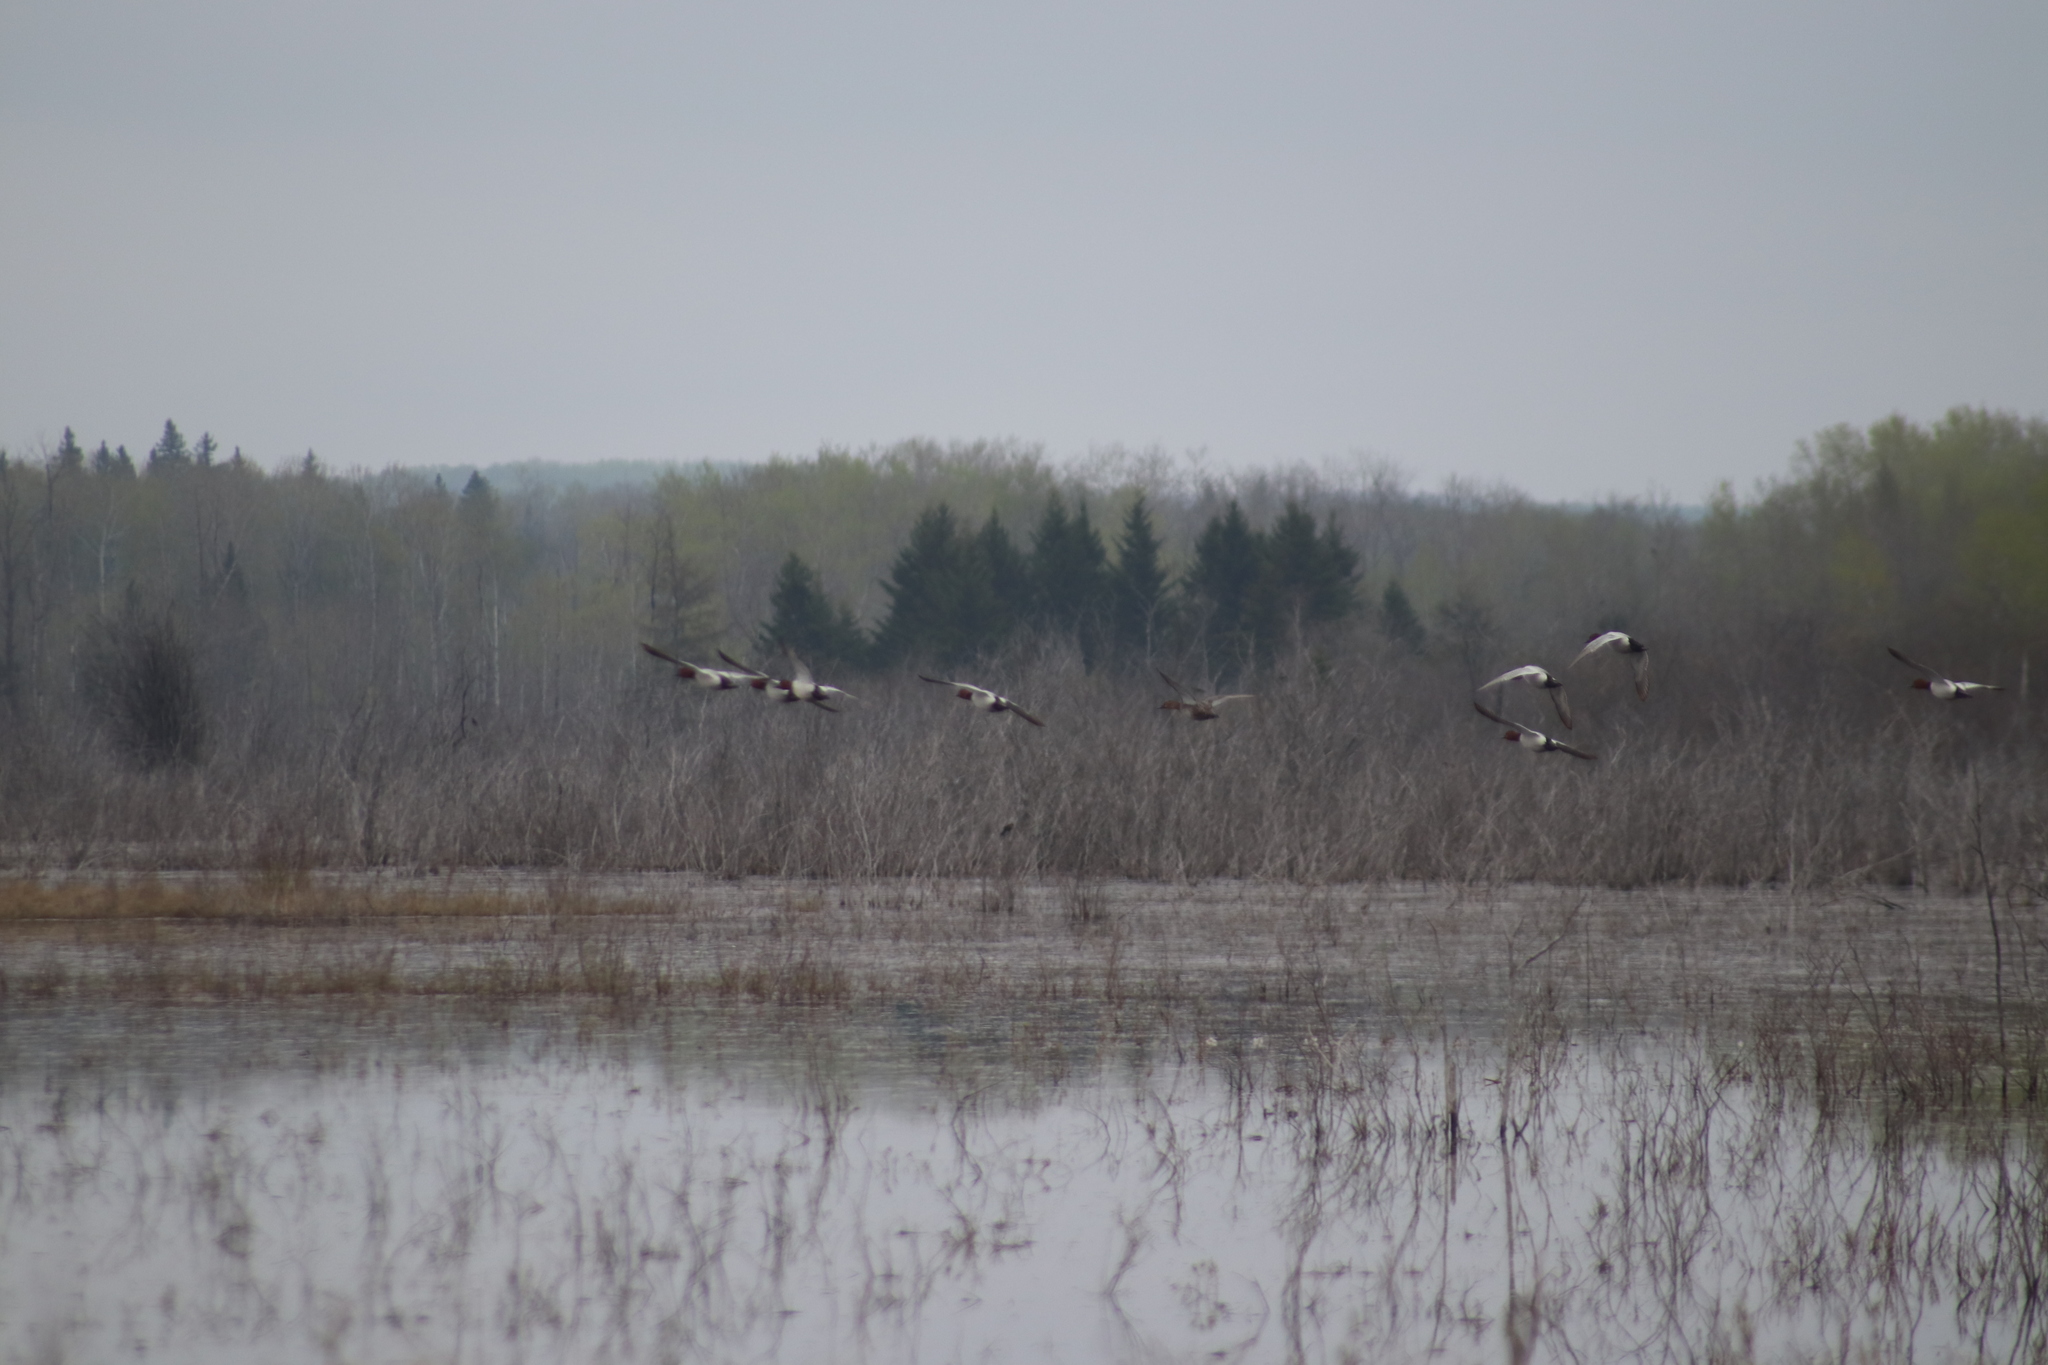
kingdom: Animalia
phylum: Chordata
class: Aves
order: Anseriformes
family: Anatidae
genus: Aythya
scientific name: Aythya valisineria
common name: Canvasback
